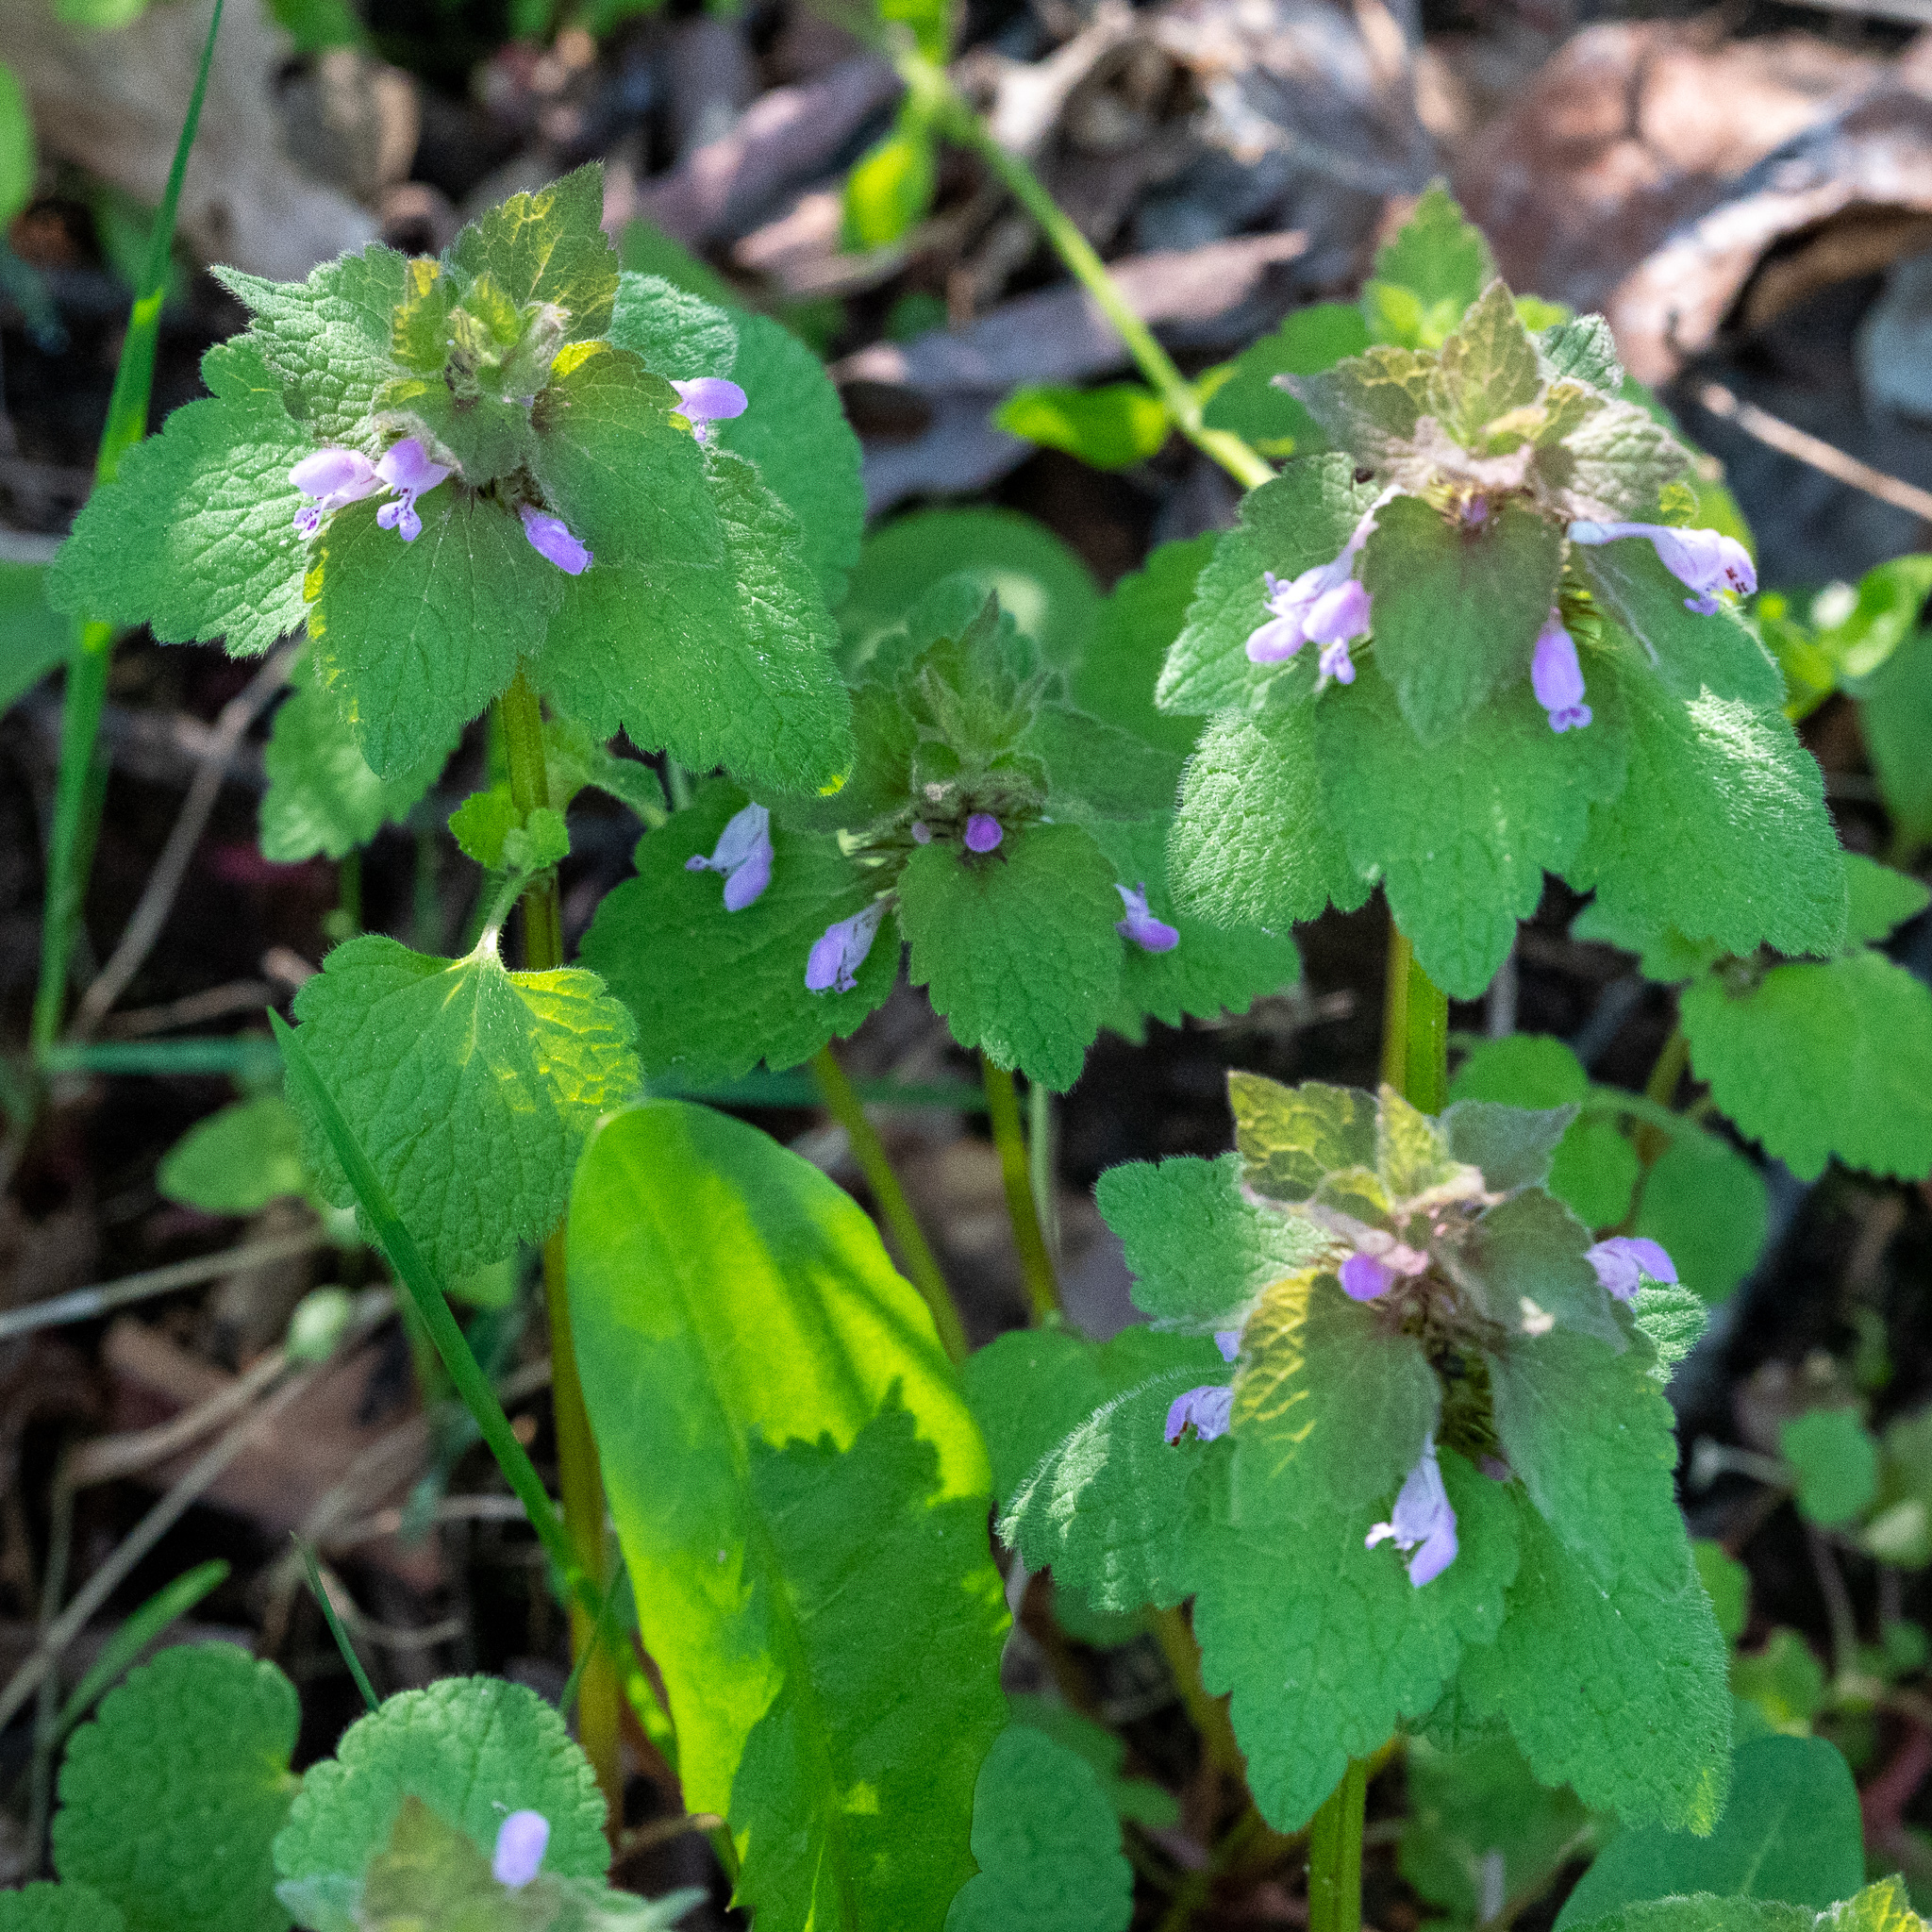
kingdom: Plantae
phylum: Tracheophyta
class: Magnoliopsida
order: Lamiales
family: Lamiaceae
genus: Lamium
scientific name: Lamium purpureum
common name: Red dead-nettle
